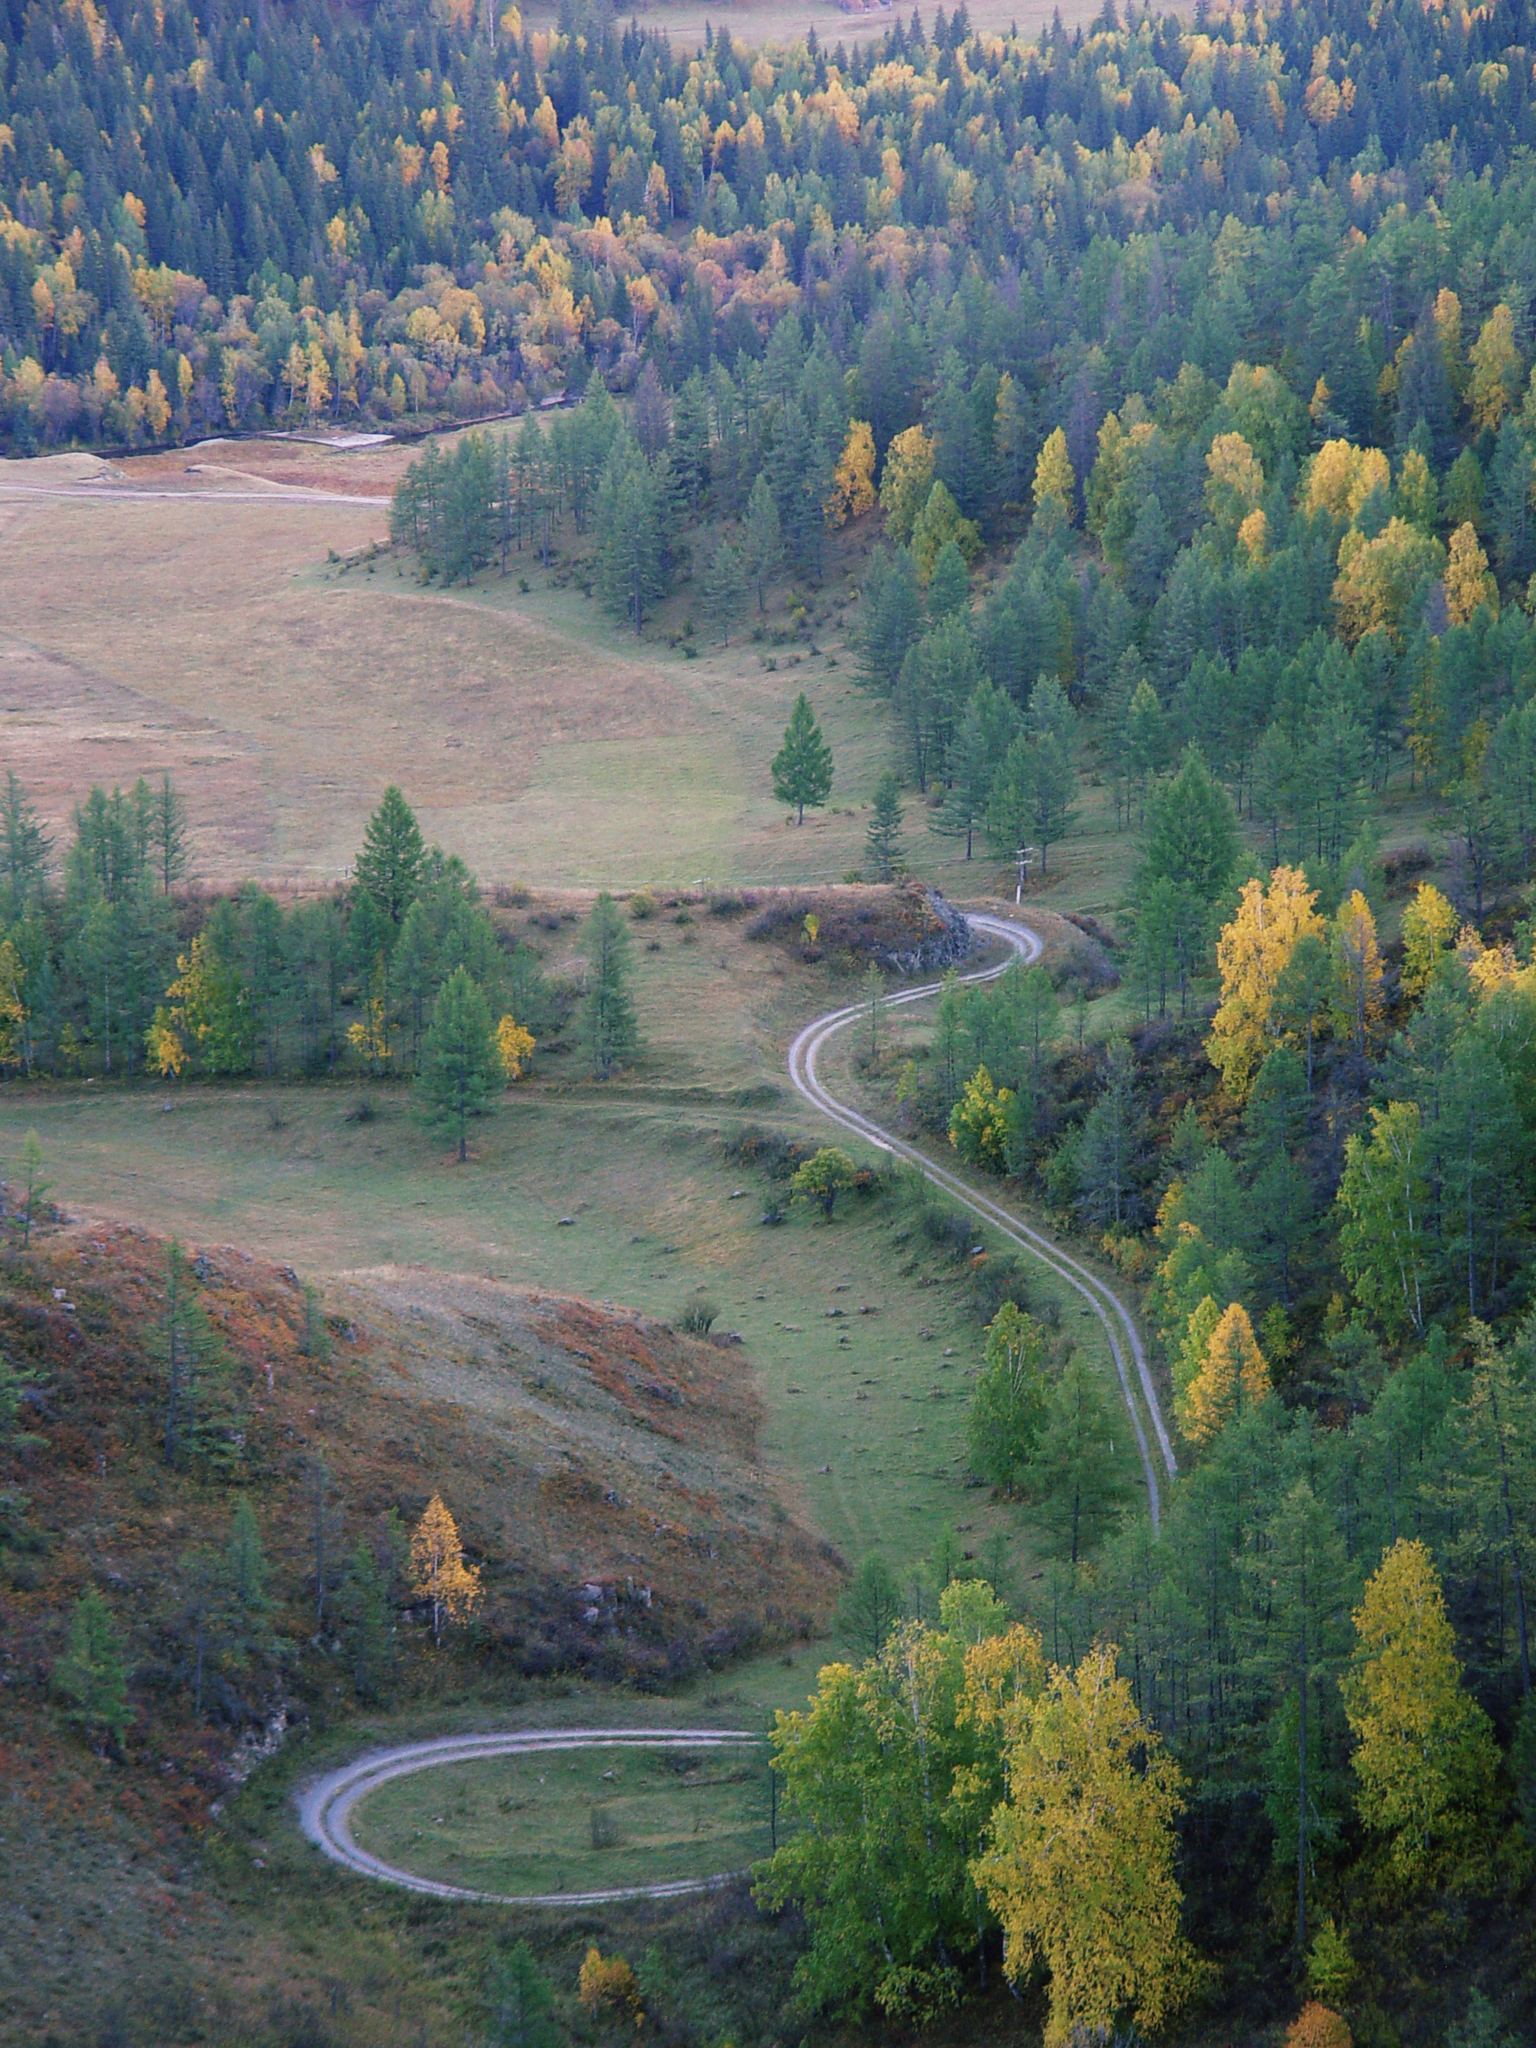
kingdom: Plantae
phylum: Tracheophyta
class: Magnoliopsida
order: Fagales
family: Betulaceae
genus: Betula
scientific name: Betula pendula
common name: Silver birch
